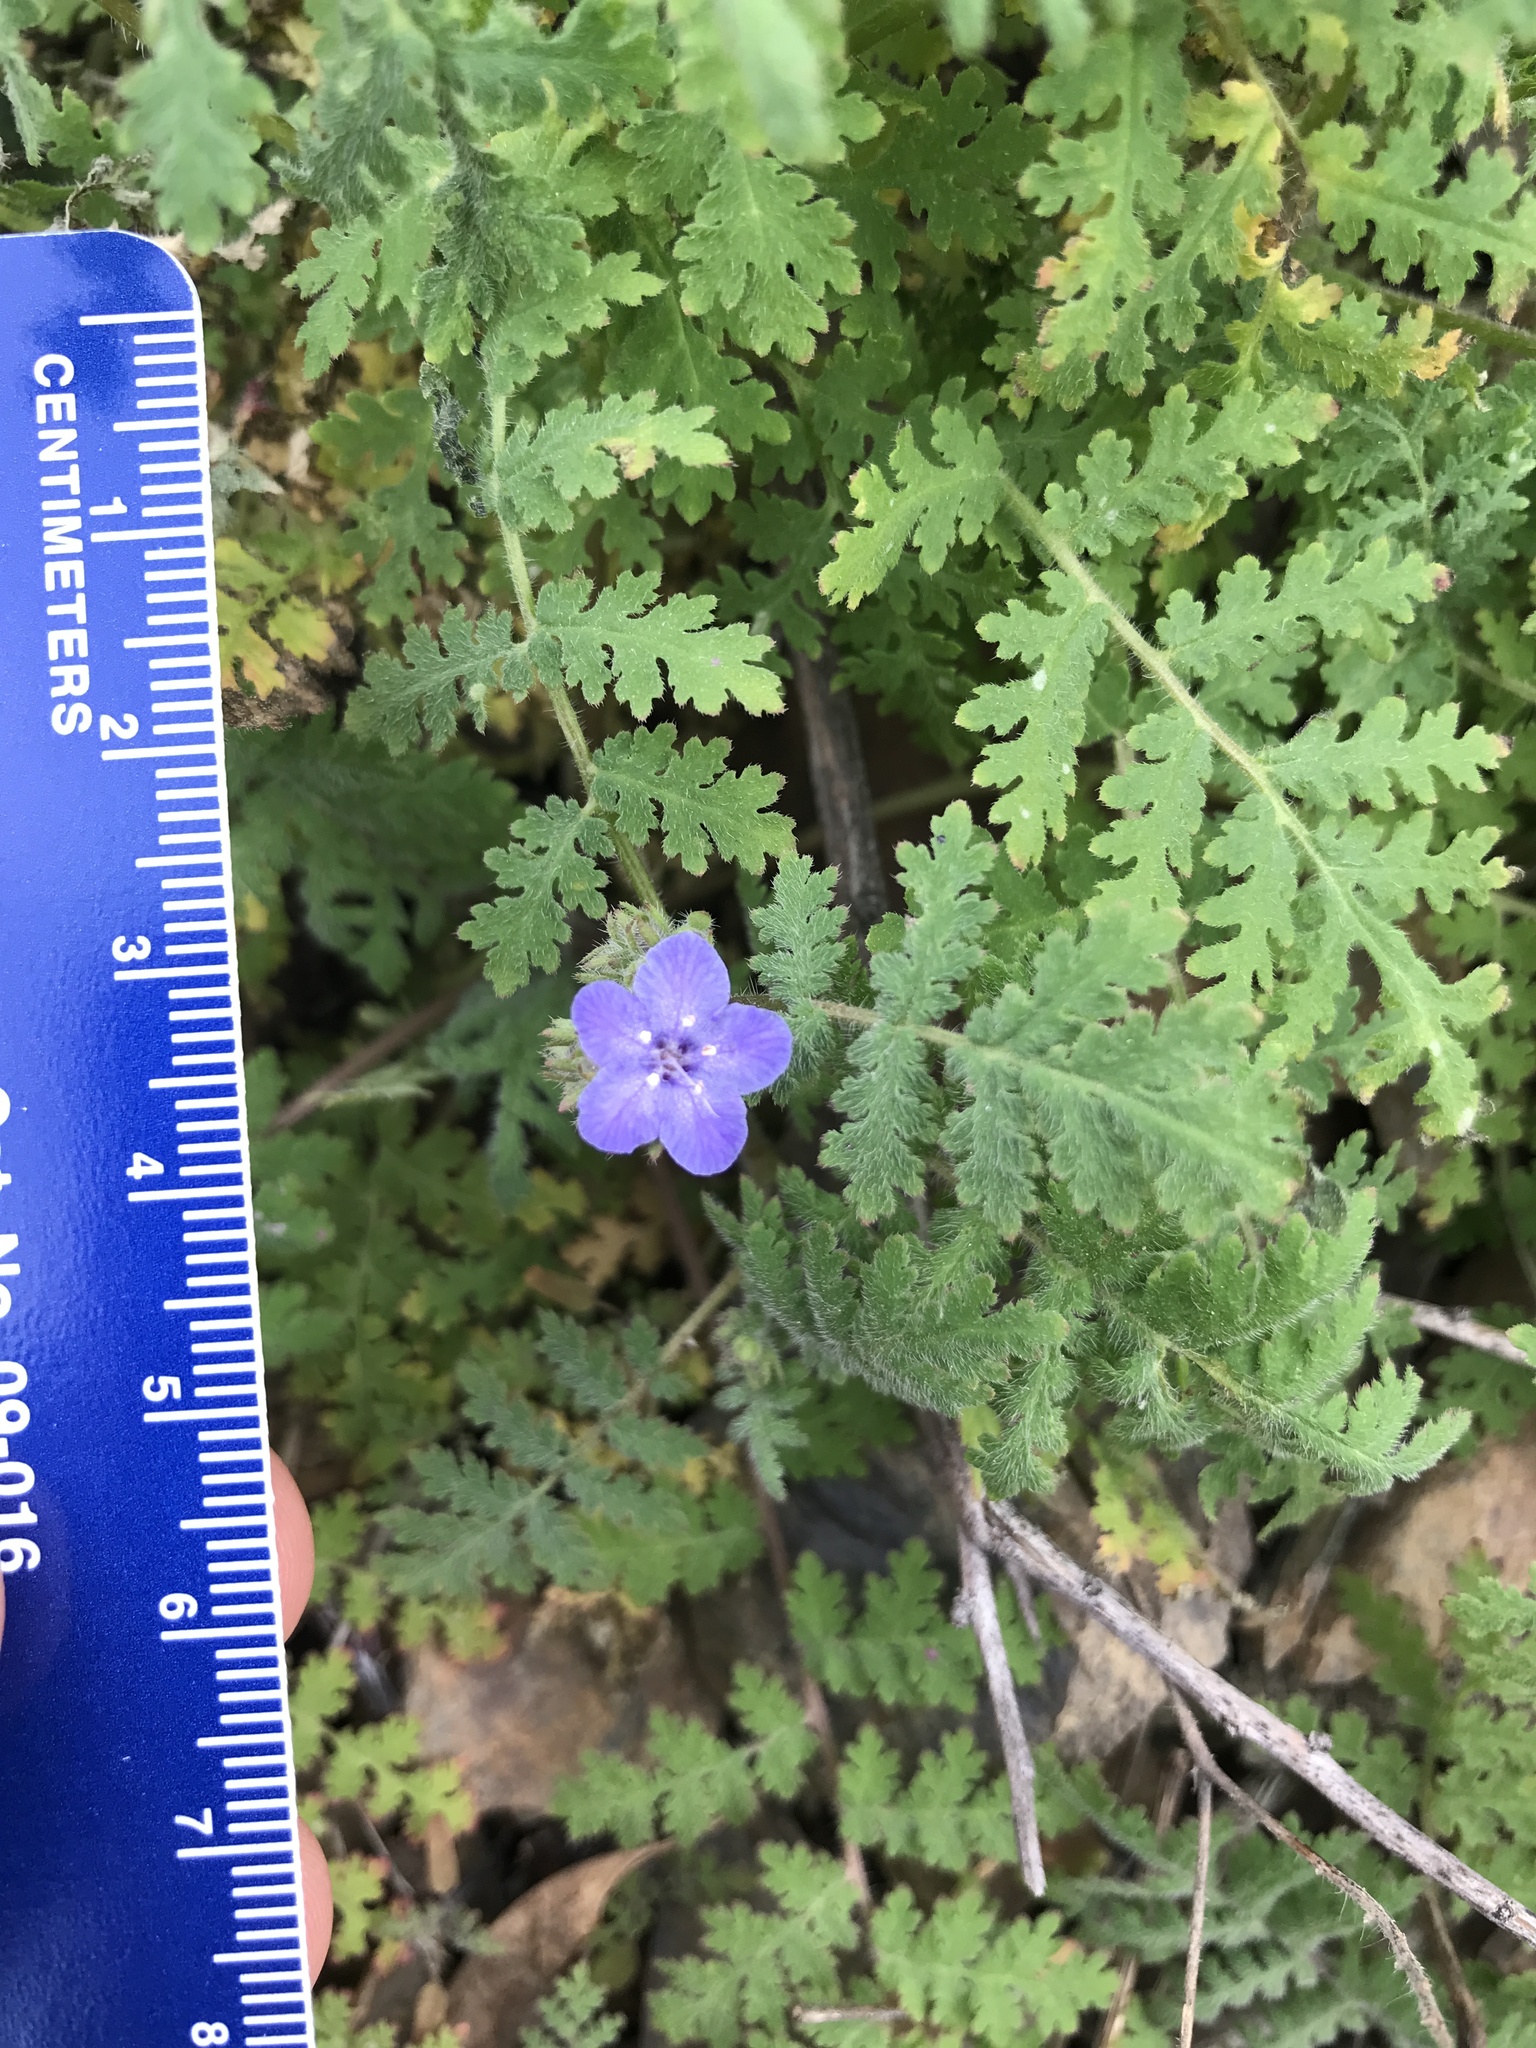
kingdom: Plantae
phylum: Tracheophyta
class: Magnoliopsida
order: Boraginales
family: Hydrophyllaceae
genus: Phacelia
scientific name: Phacelia distans
